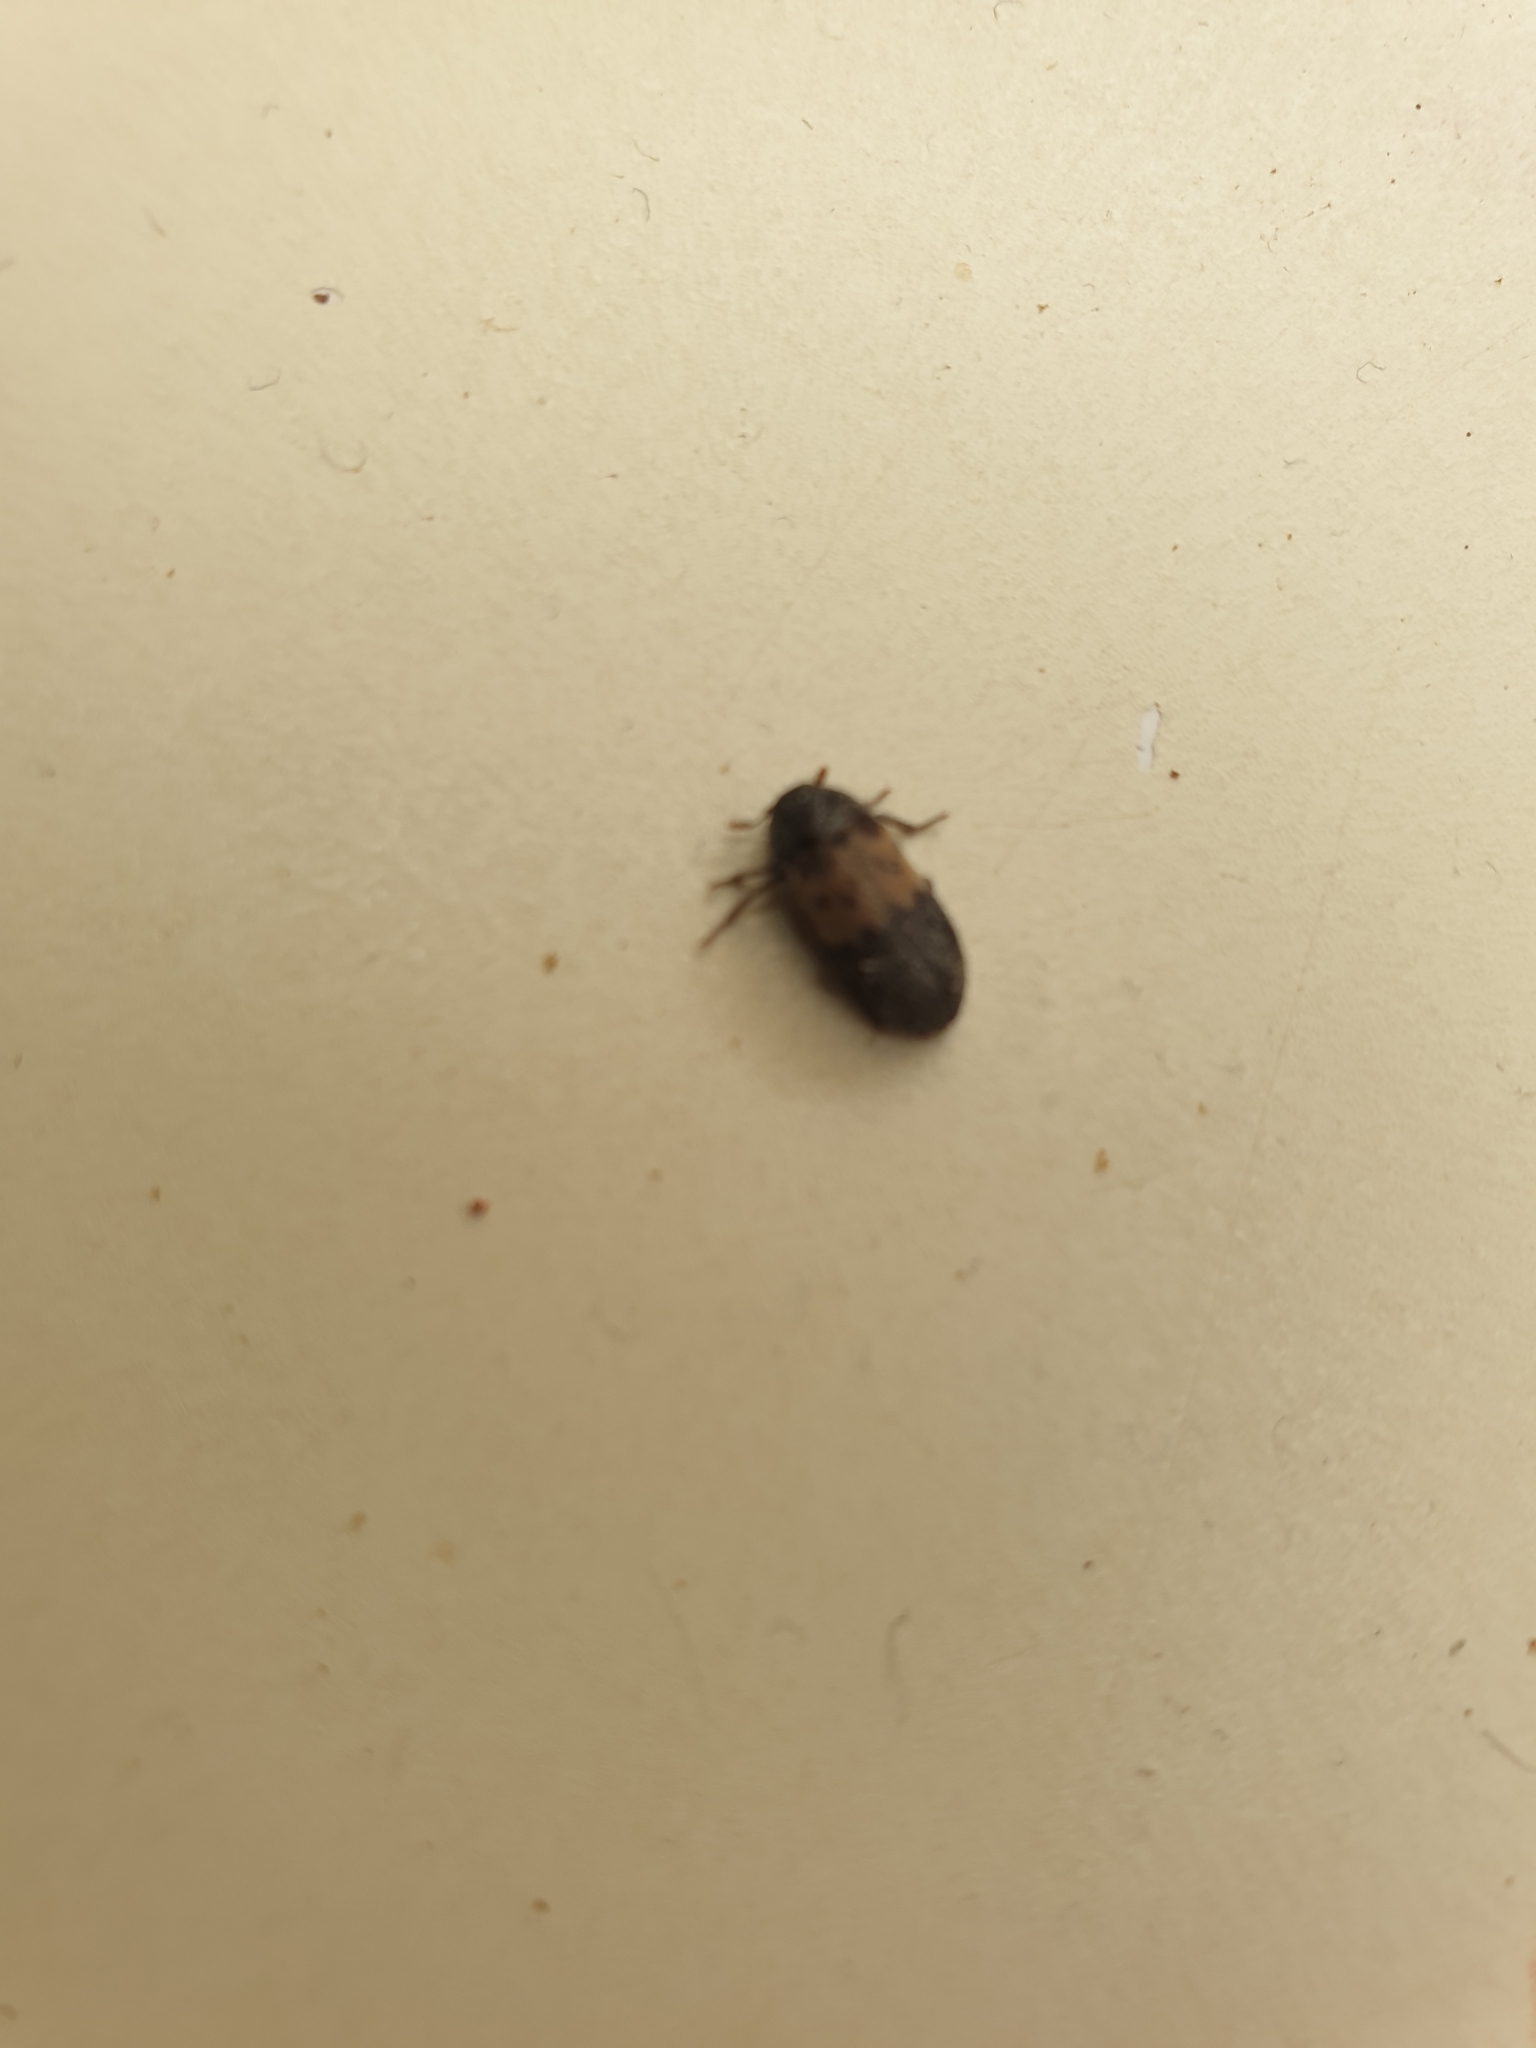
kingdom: Animalia
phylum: Arthropoda
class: Insecta
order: Coleoptera
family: Dermestidae
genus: Dermestes
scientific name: Dermestes lardarius
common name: Larder beetle
